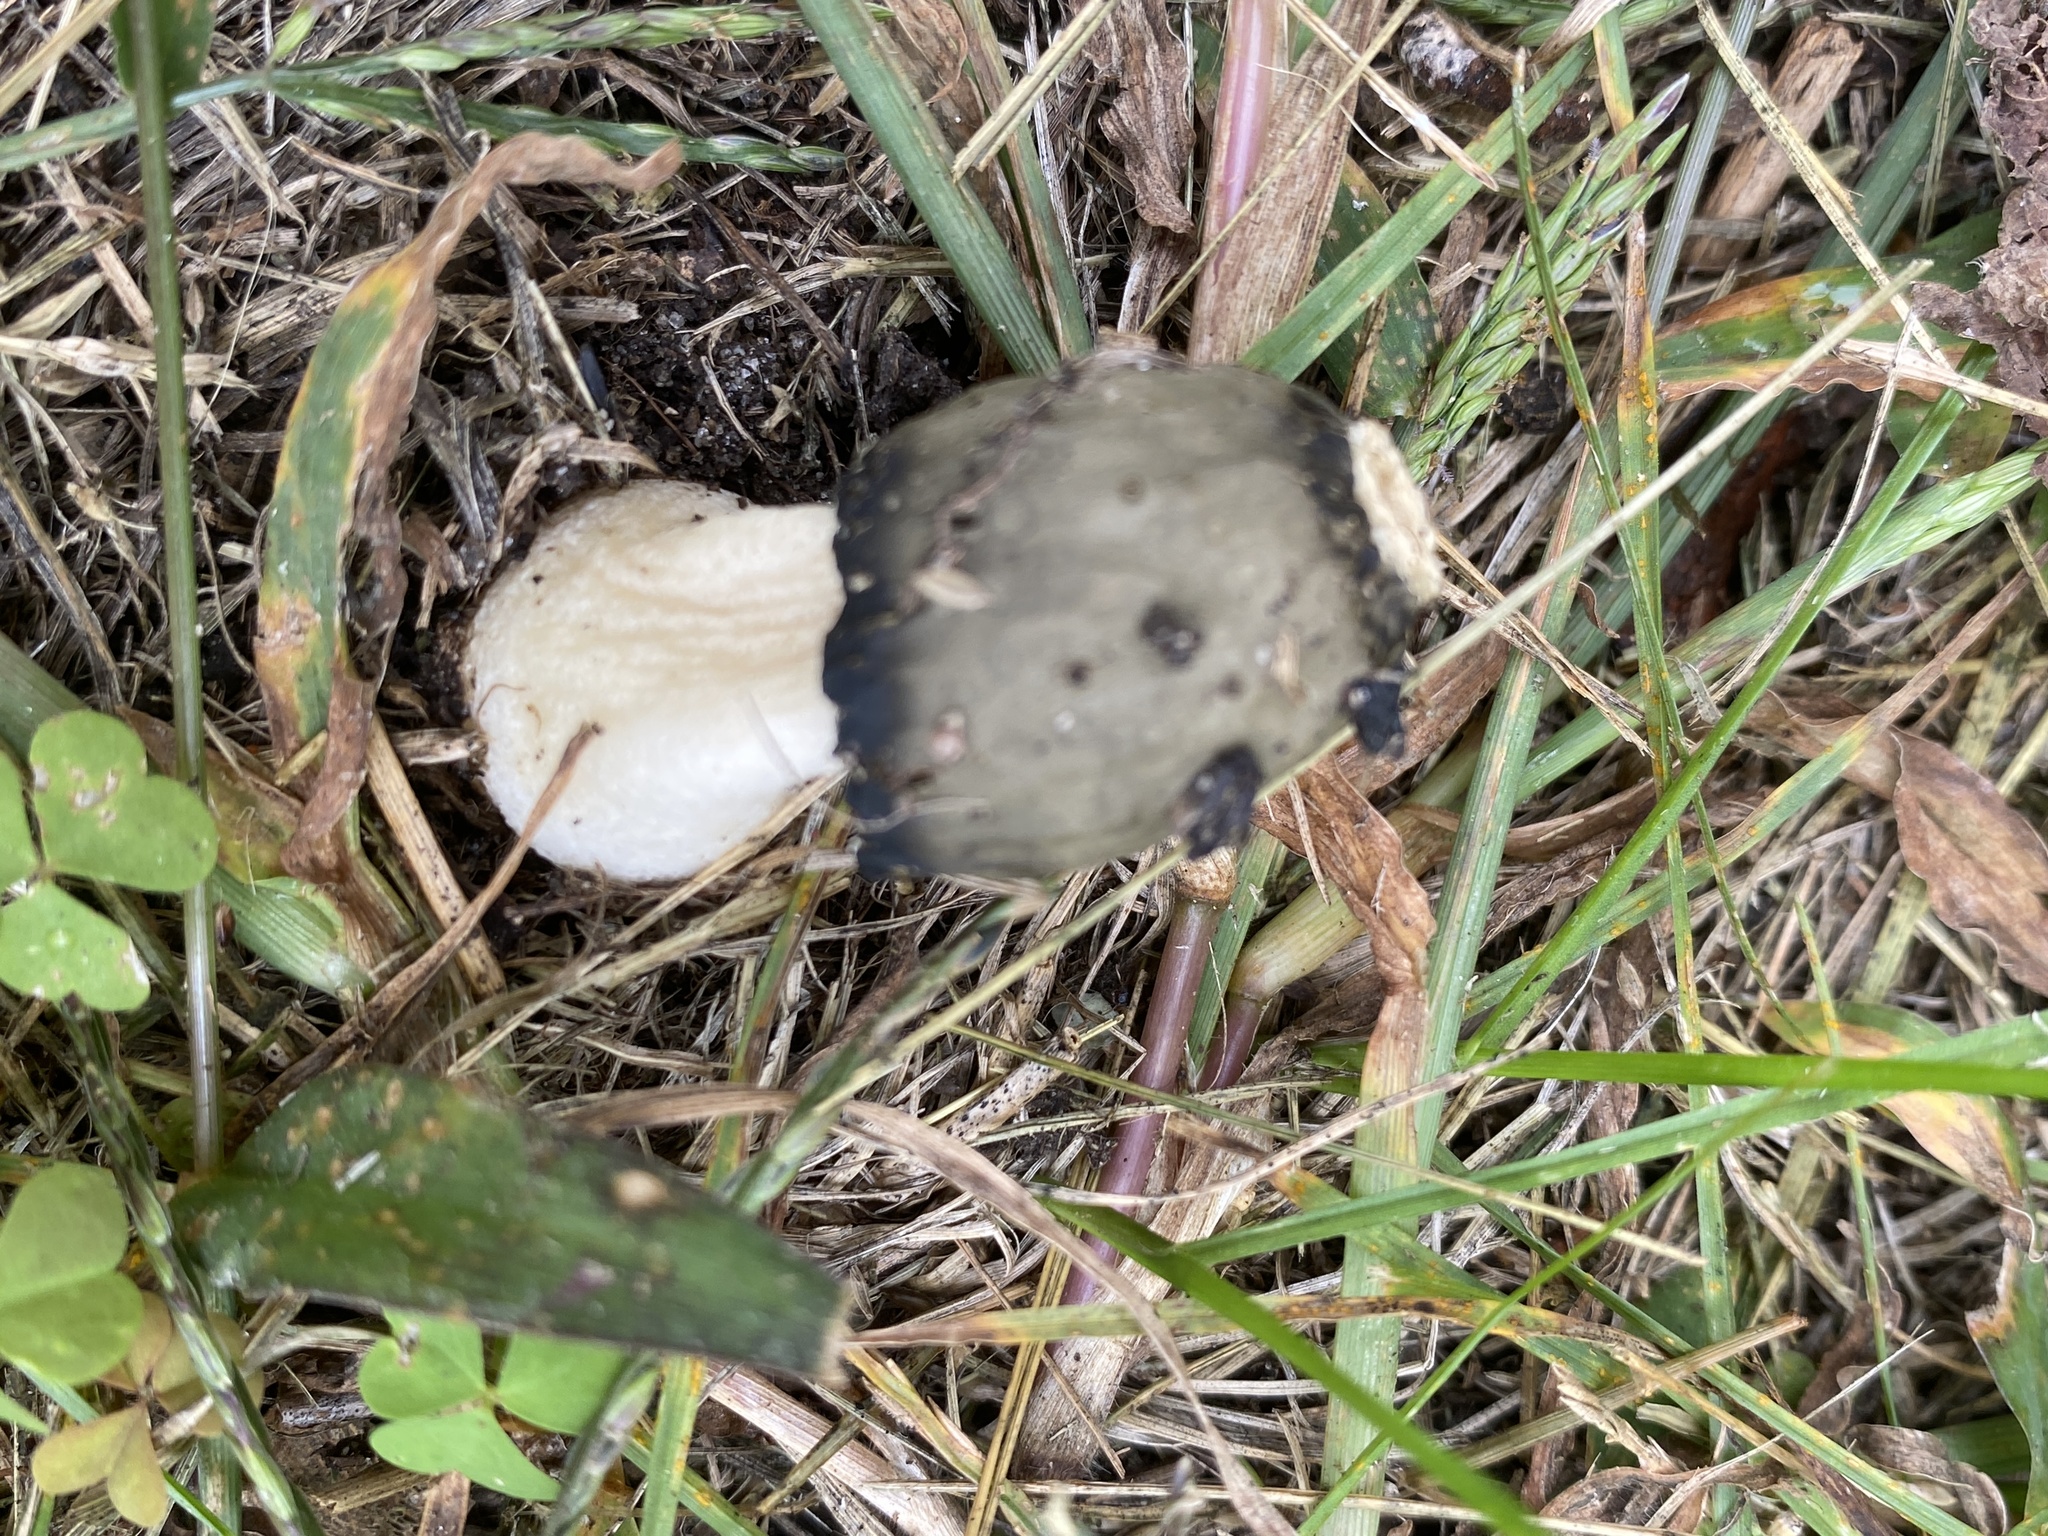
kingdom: Fungi
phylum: Basidiomycota
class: Agaricomycetes
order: Phallales
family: Phallaceae
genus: Phallus
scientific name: Phallus ravenelii
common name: Ravenel's stinkhorn
